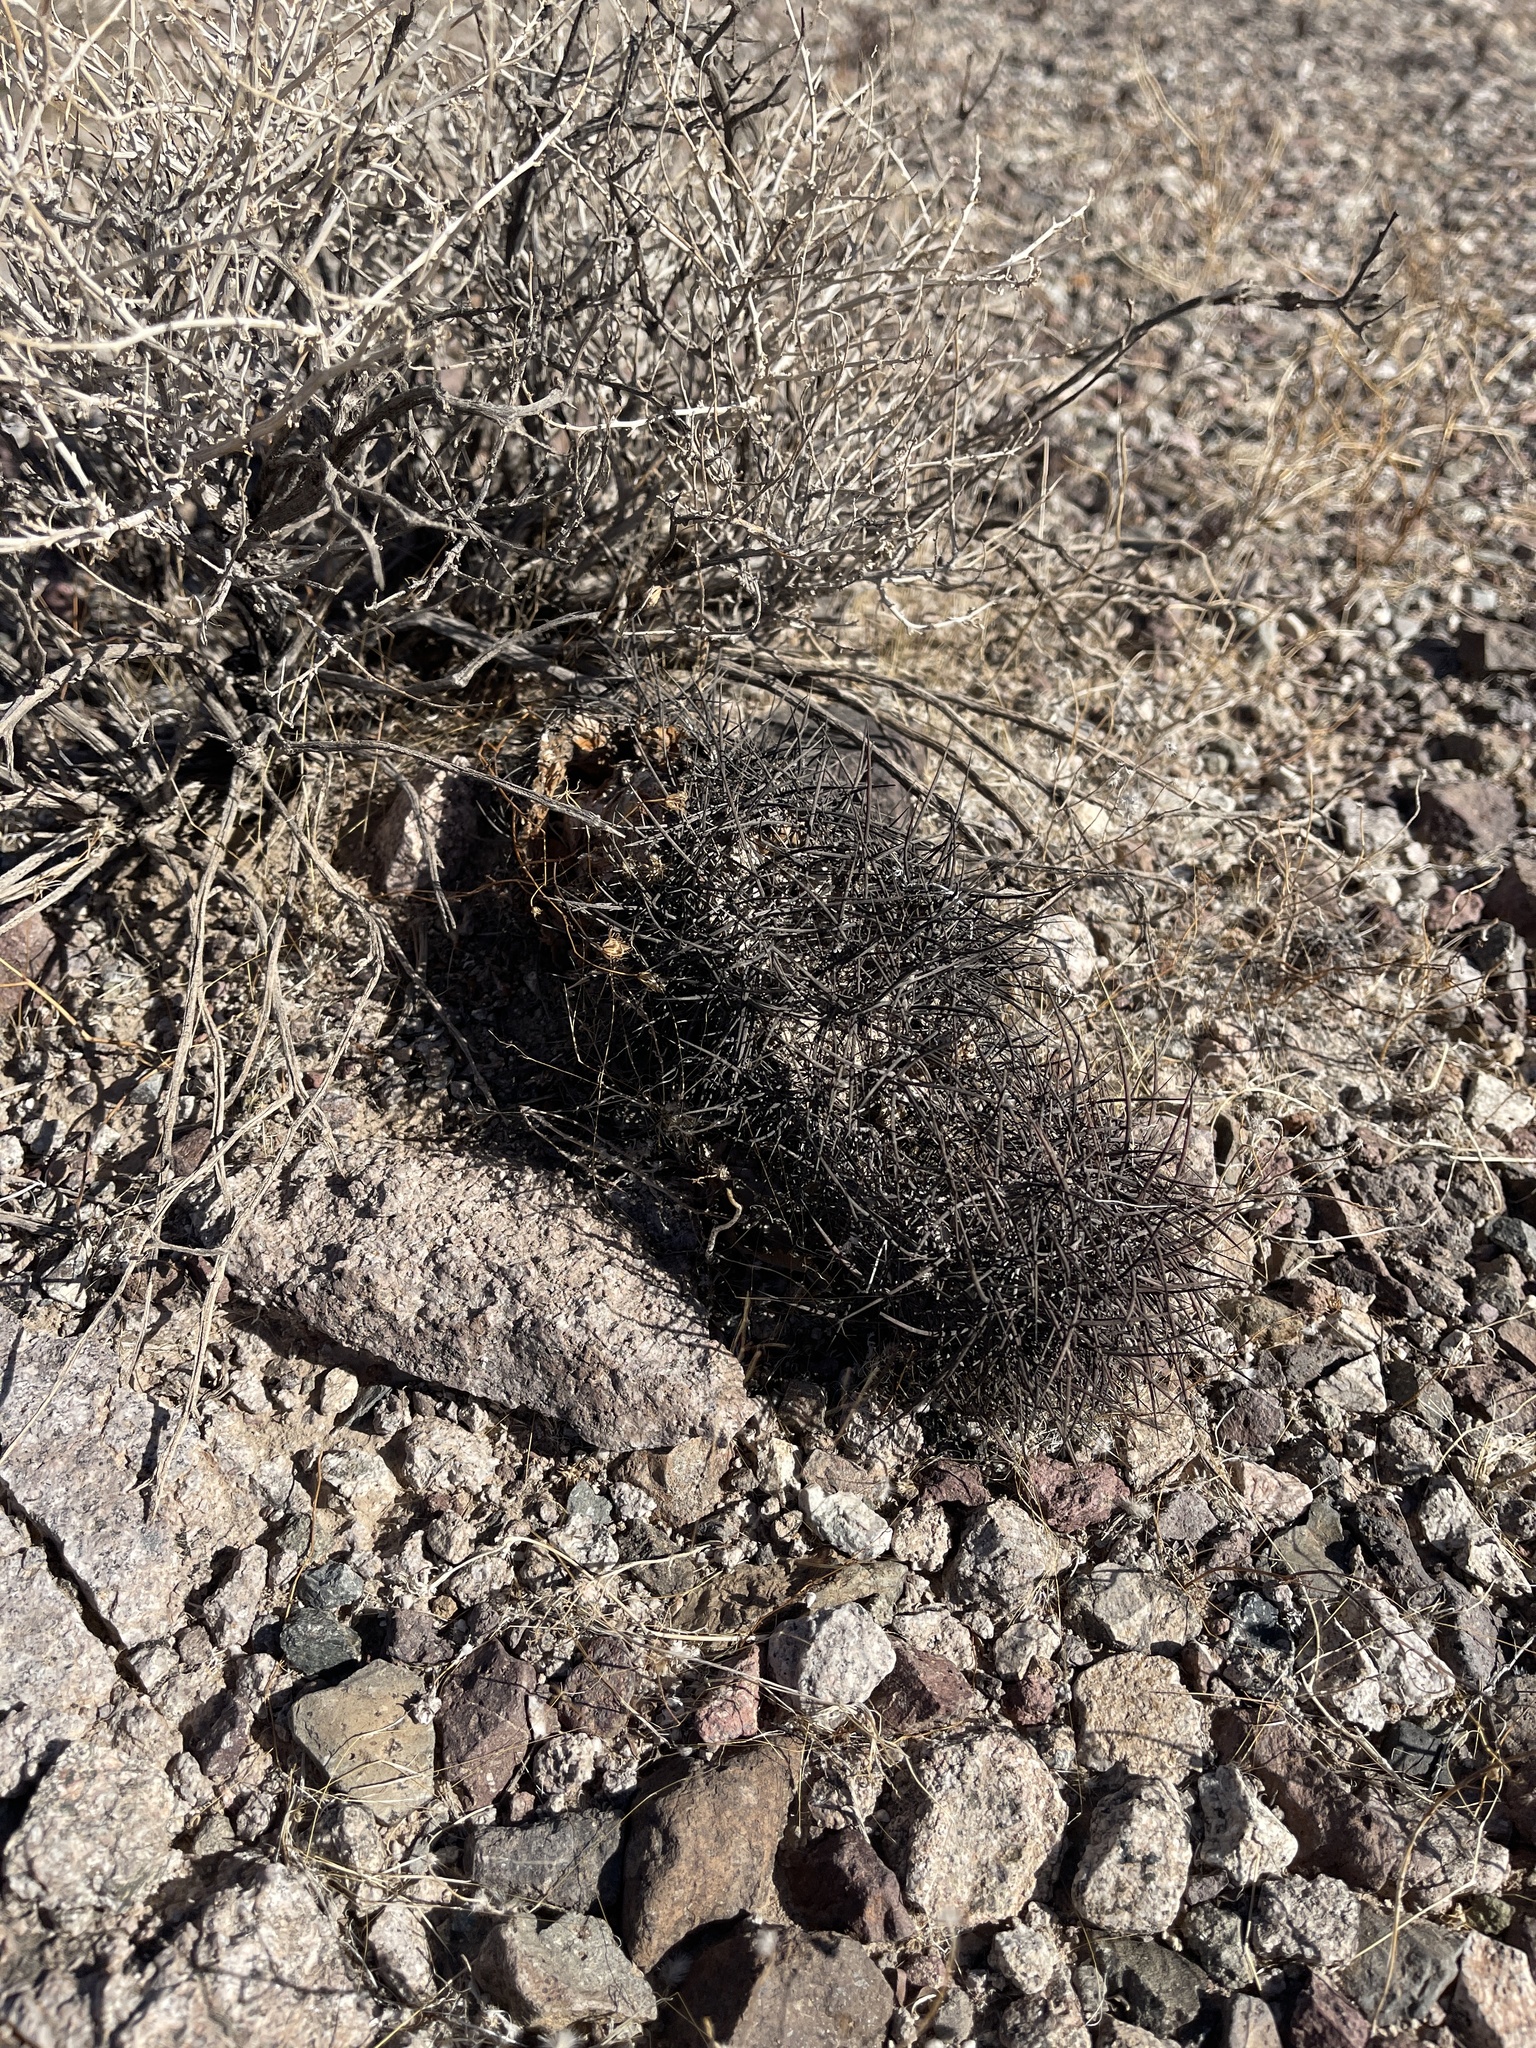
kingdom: Plantae
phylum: Tracheophyta
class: Magnoliopsida
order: Caryophyllales
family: Cactaceae
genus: Sclerocactus
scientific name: Sclerocactus johnsonii
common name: Eight-spine fishhook cactus
